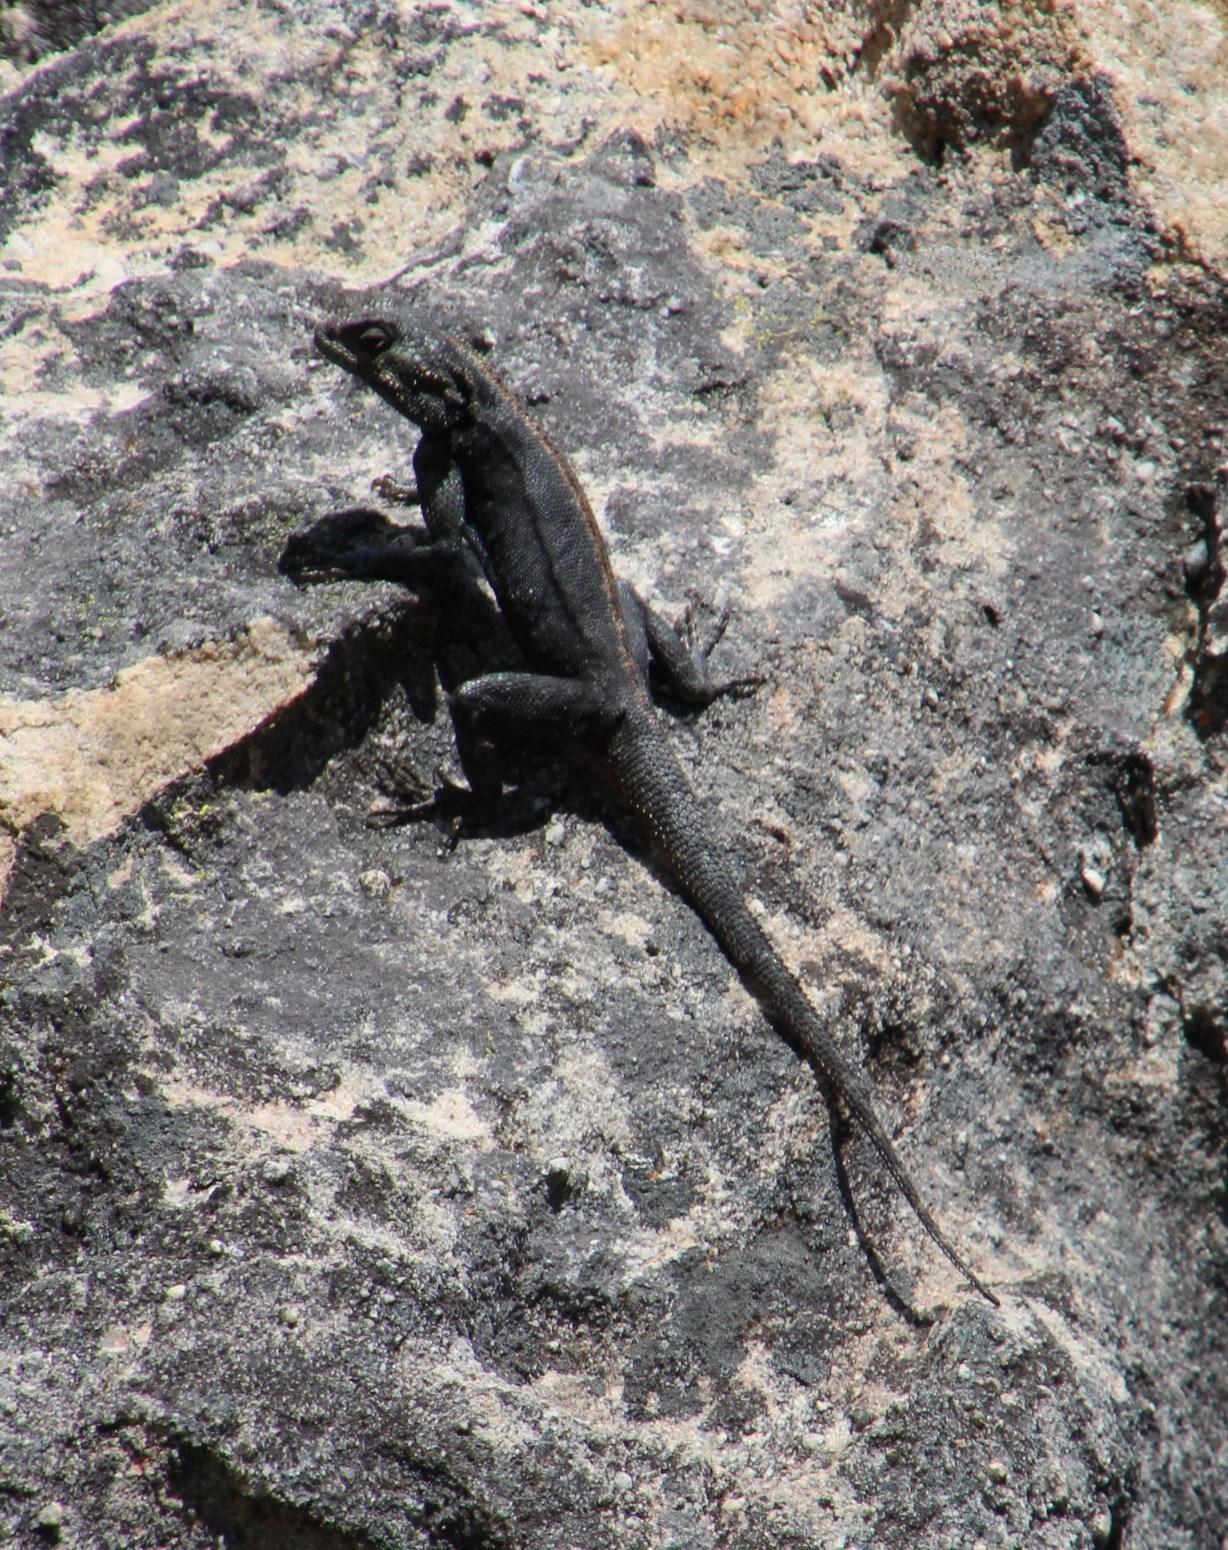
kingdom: Animalia
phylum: Chordata
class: Squamata
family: Agamidae
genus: Agama
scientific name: Agama atra
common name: Southern african rock agama
